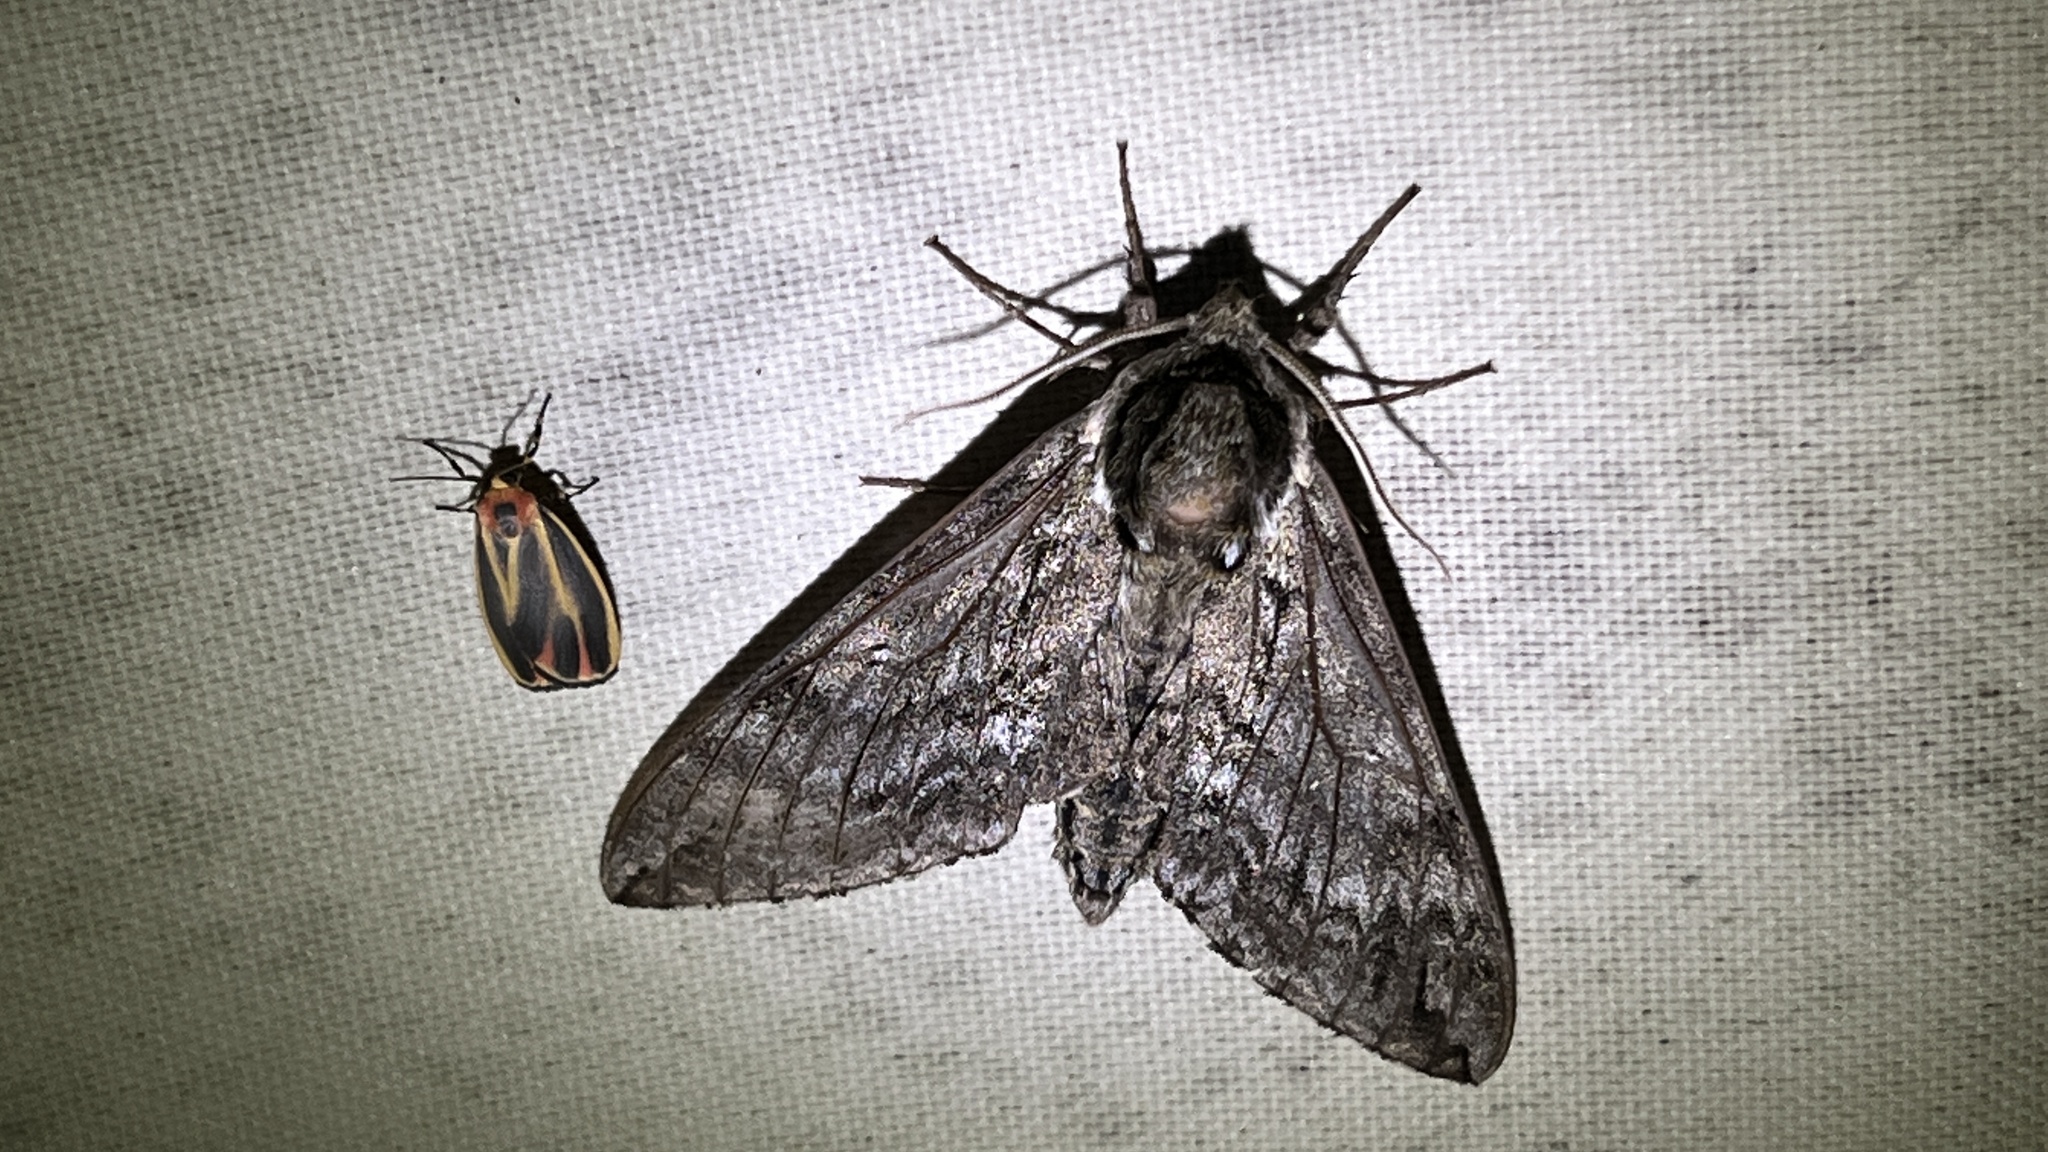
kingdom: Animalia
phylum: Arthropoda
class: Insecta
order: Lepidoptera
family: Sphingidae
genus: Ceratomia
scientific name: Ceratomia undulosa
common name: Waved sphinx
